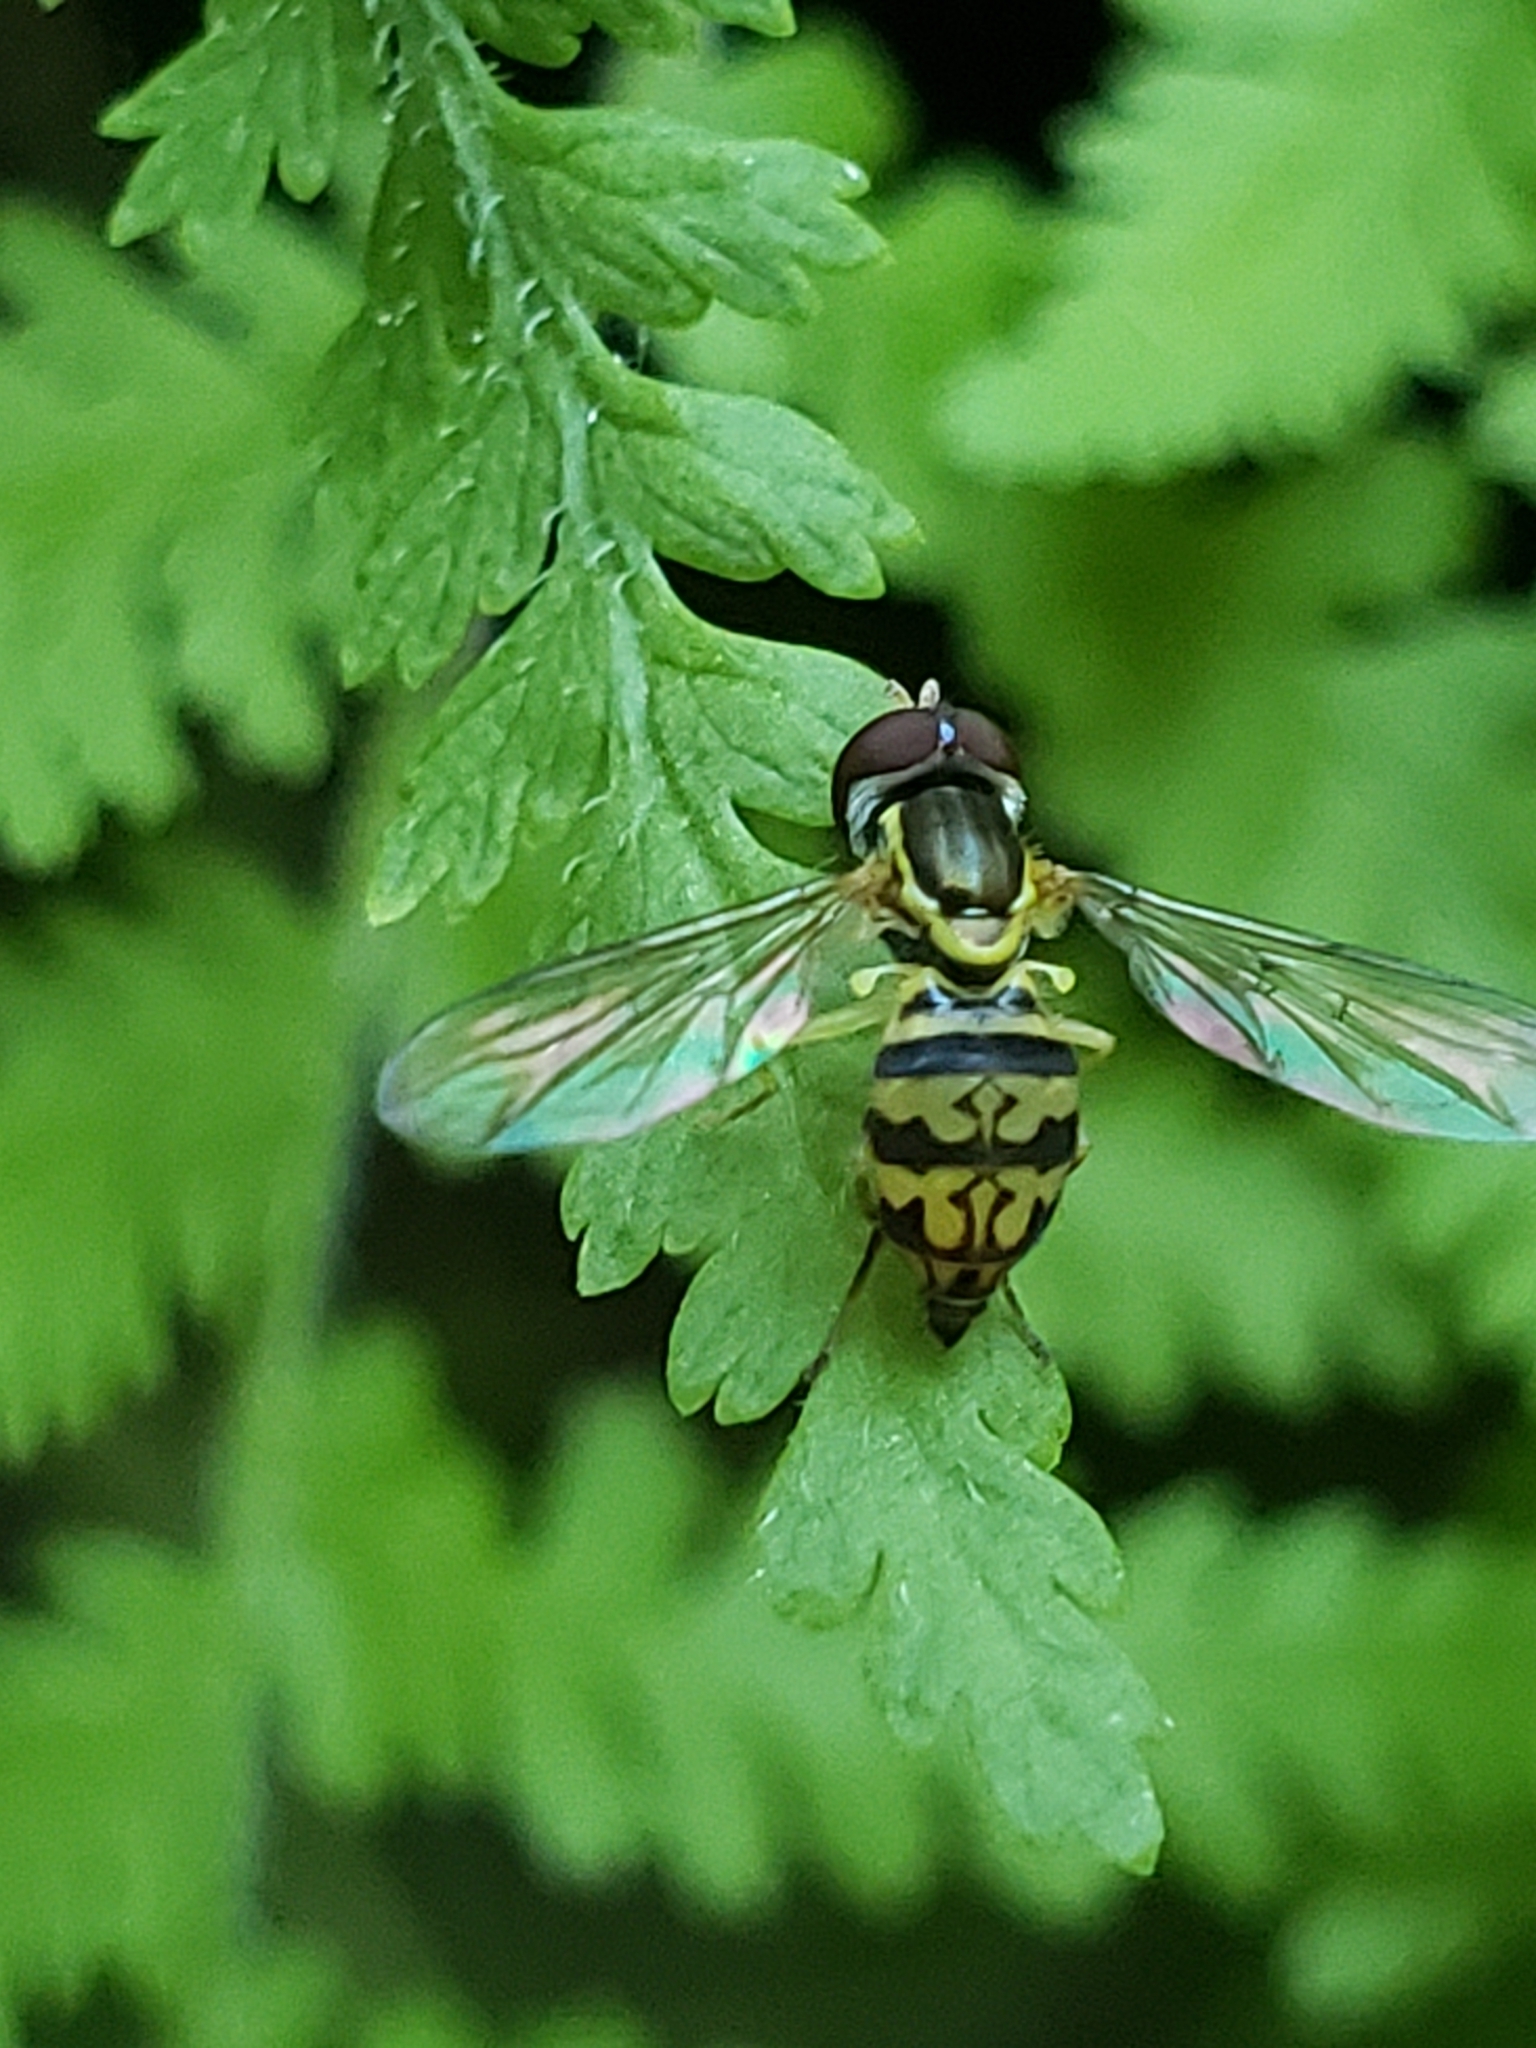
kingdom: Animalia
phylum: Arthropoda
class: Insecta
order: Diptera
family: Syrphidae
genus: Toxomerus
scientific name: Toxomerus geminatus
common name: Eastern calligrapher
